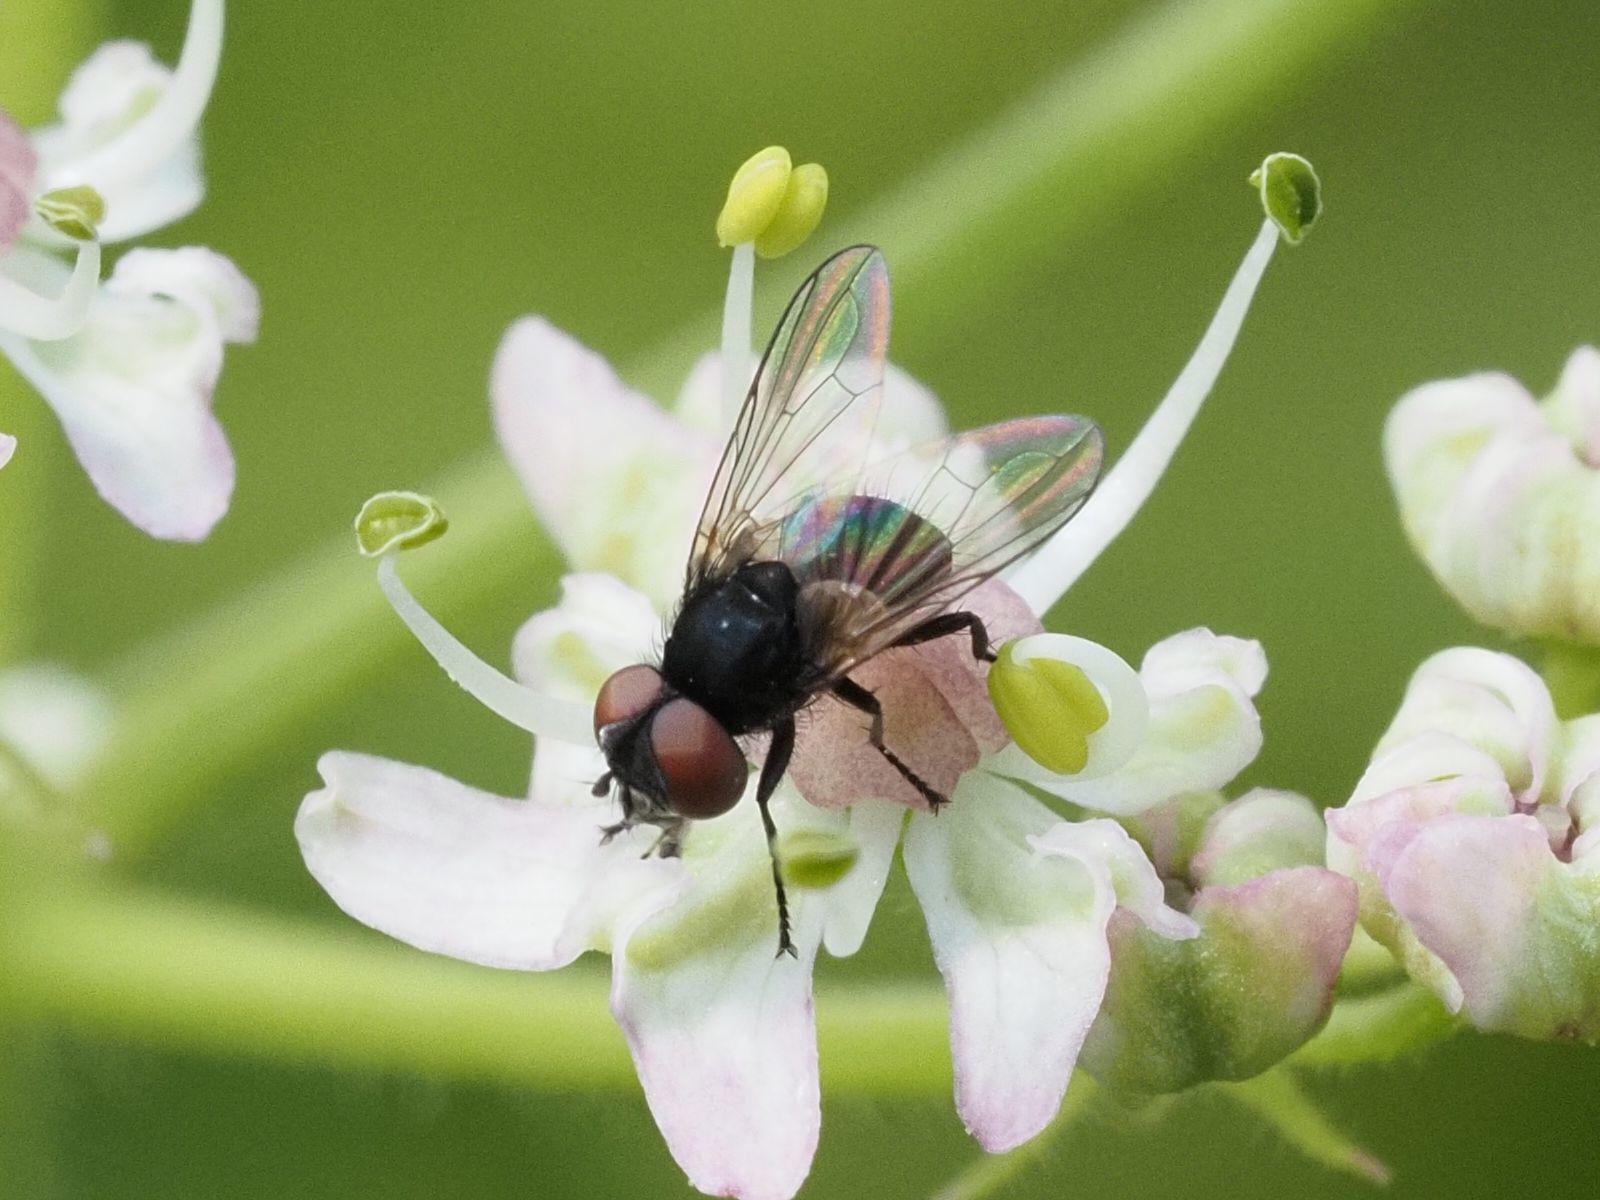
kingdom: Animalia
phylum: Arthropoda
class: Insecta
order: Diptera
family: Tachinidae
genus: Phasia
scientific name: Phasia barbifrons
